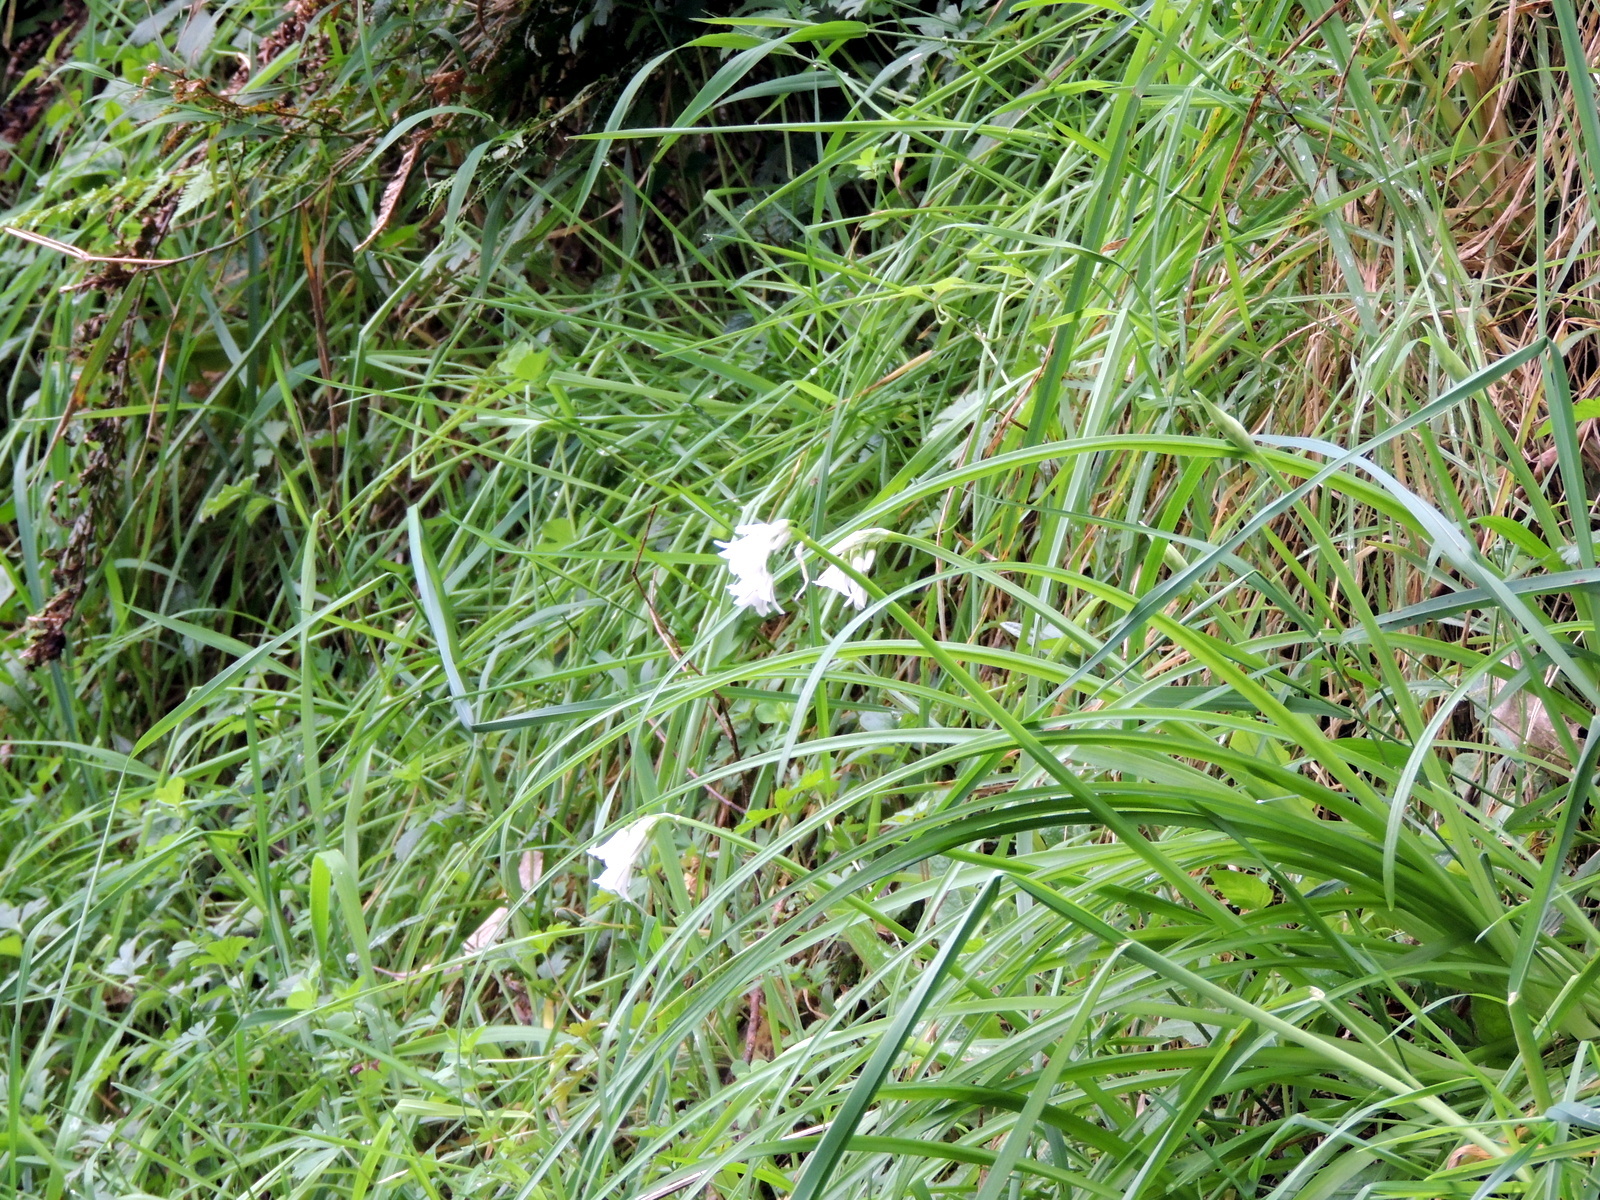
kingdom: Plantae
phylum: Tracheophyta
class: Liliopsida
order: Asparagales
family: Amaryllidaceae
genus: Allium
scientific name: Allium triquetrum
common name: Three-cornered garlic
